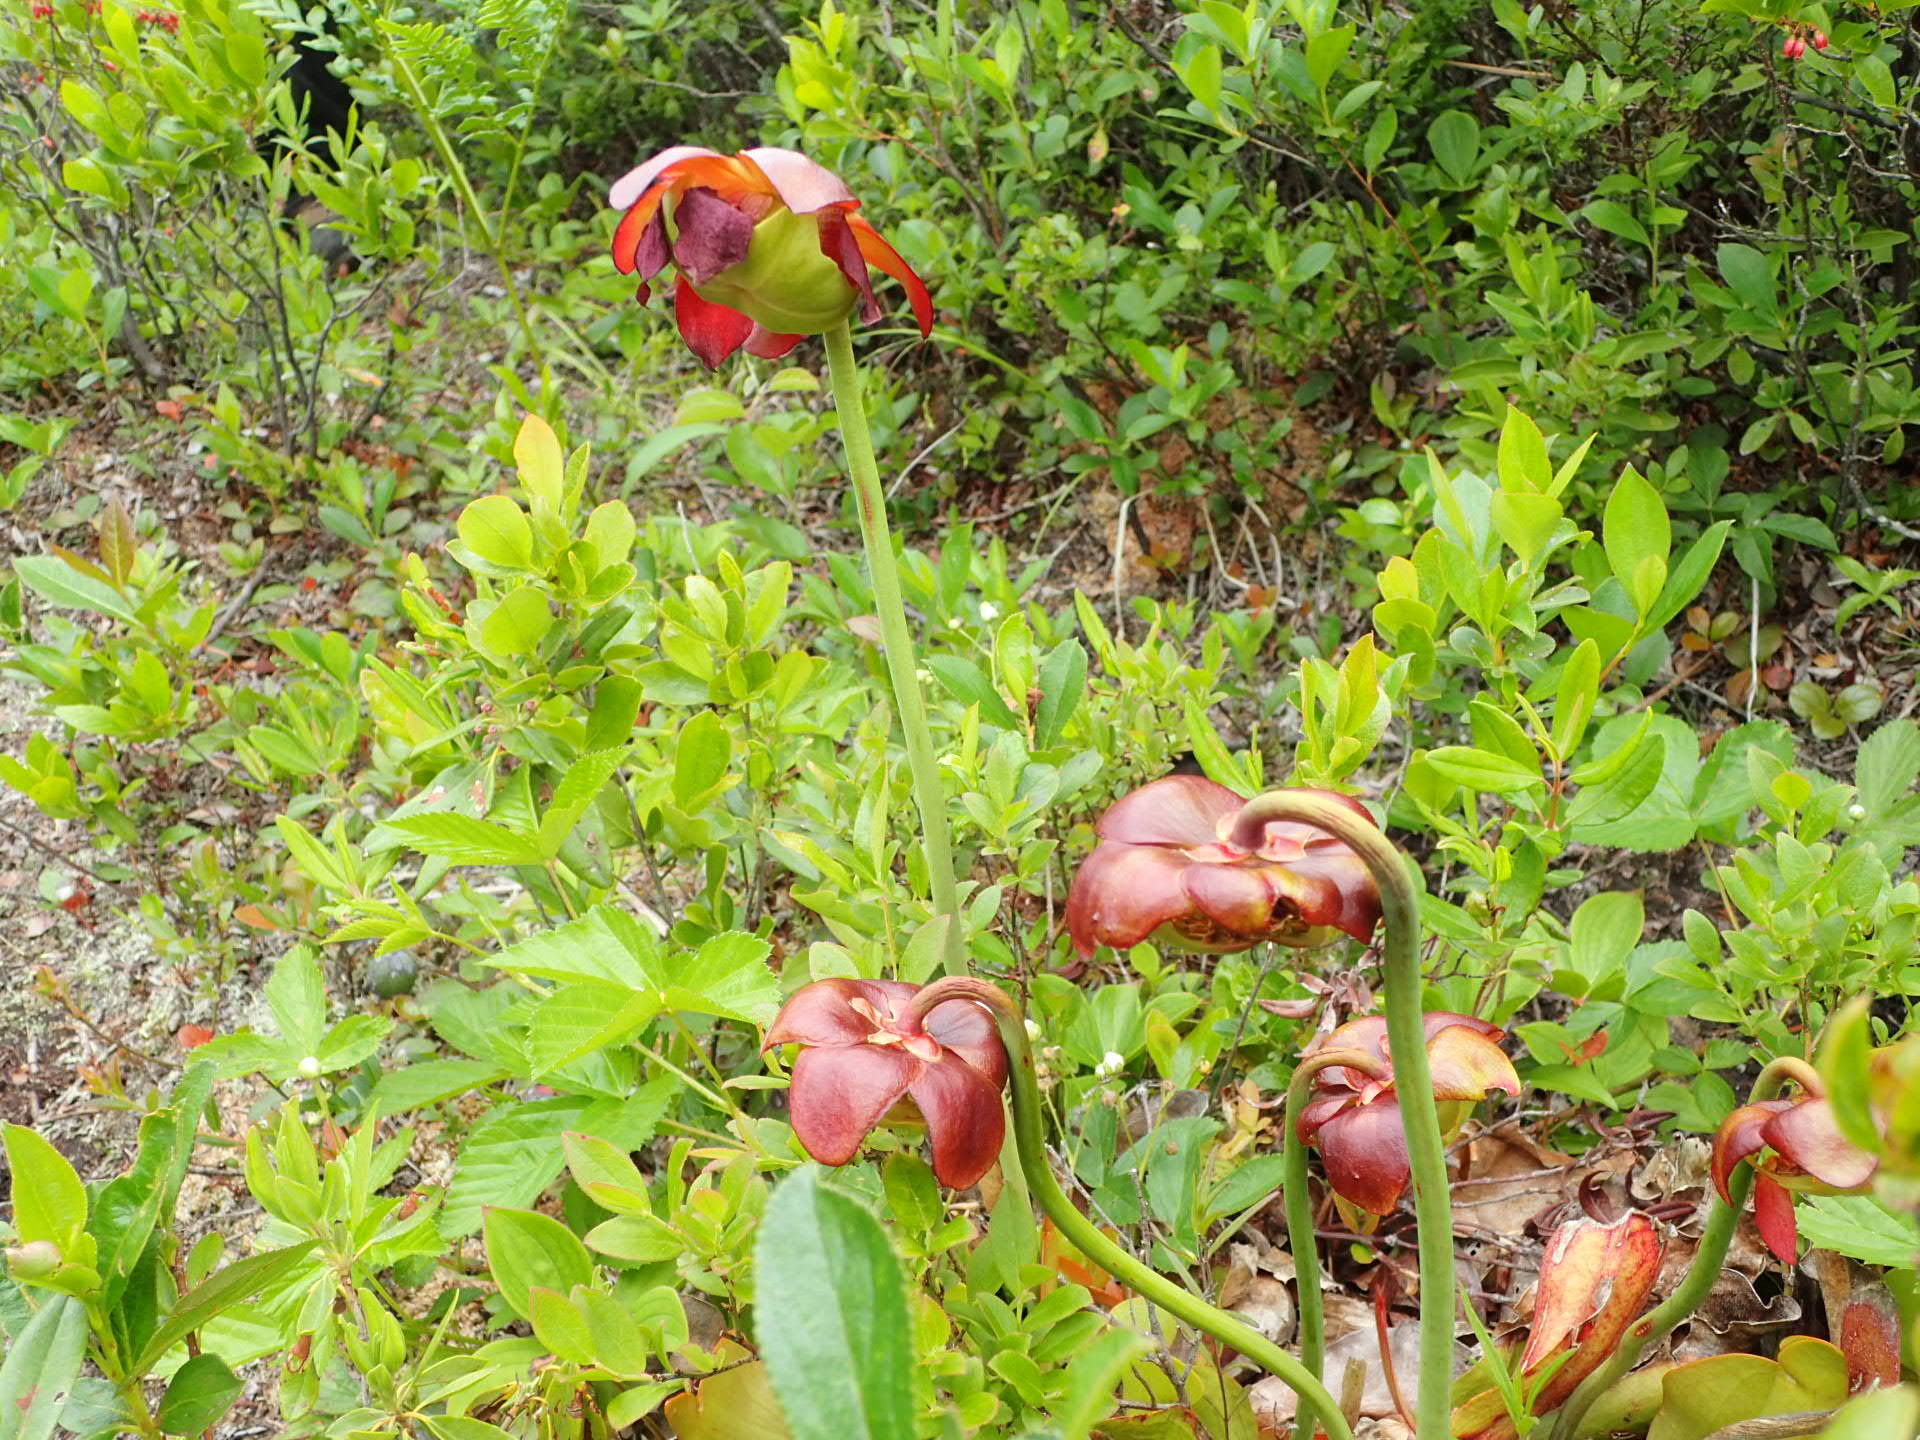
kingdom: Plantae
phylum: Tracheophyta
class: Magnoliopsida
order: Ericales
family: Sarraceniaceae
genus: Sarracenia
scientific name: Sarracenia purpurea
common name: Pitcherplant
